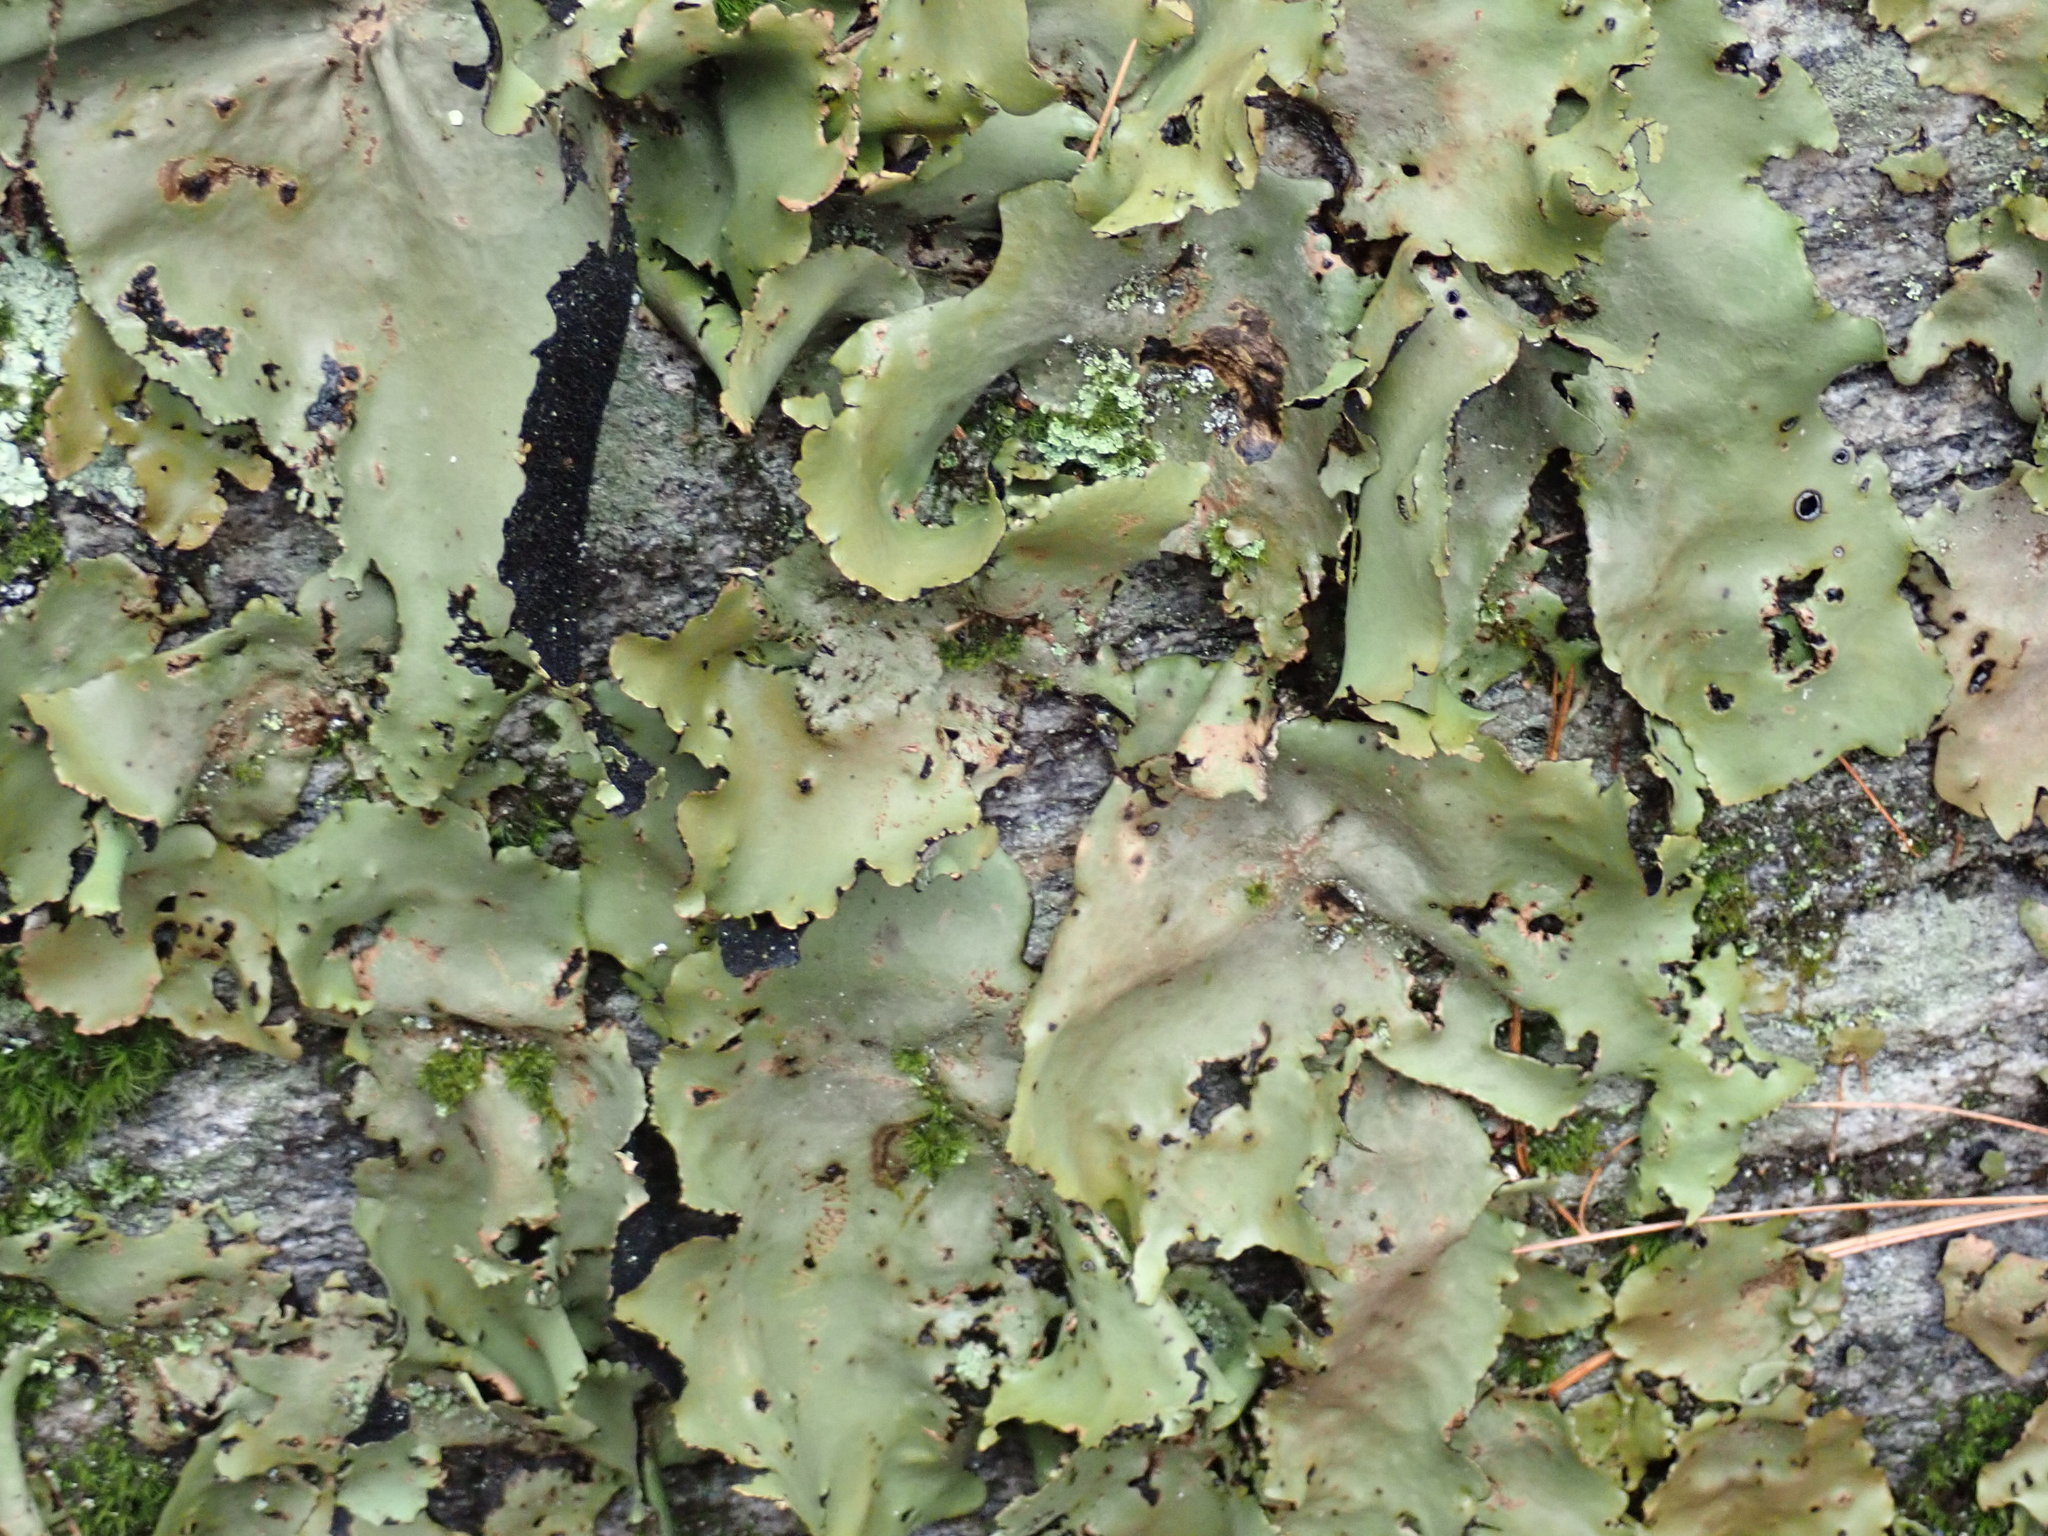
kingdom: Fungi
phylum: Ascomycota
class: Lecanoromycetes
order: Umbilicariales
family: Umbilicariaceae
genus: Umbilicaria
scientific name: Umbilicaria mammulata
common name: Smooth rock tripe
